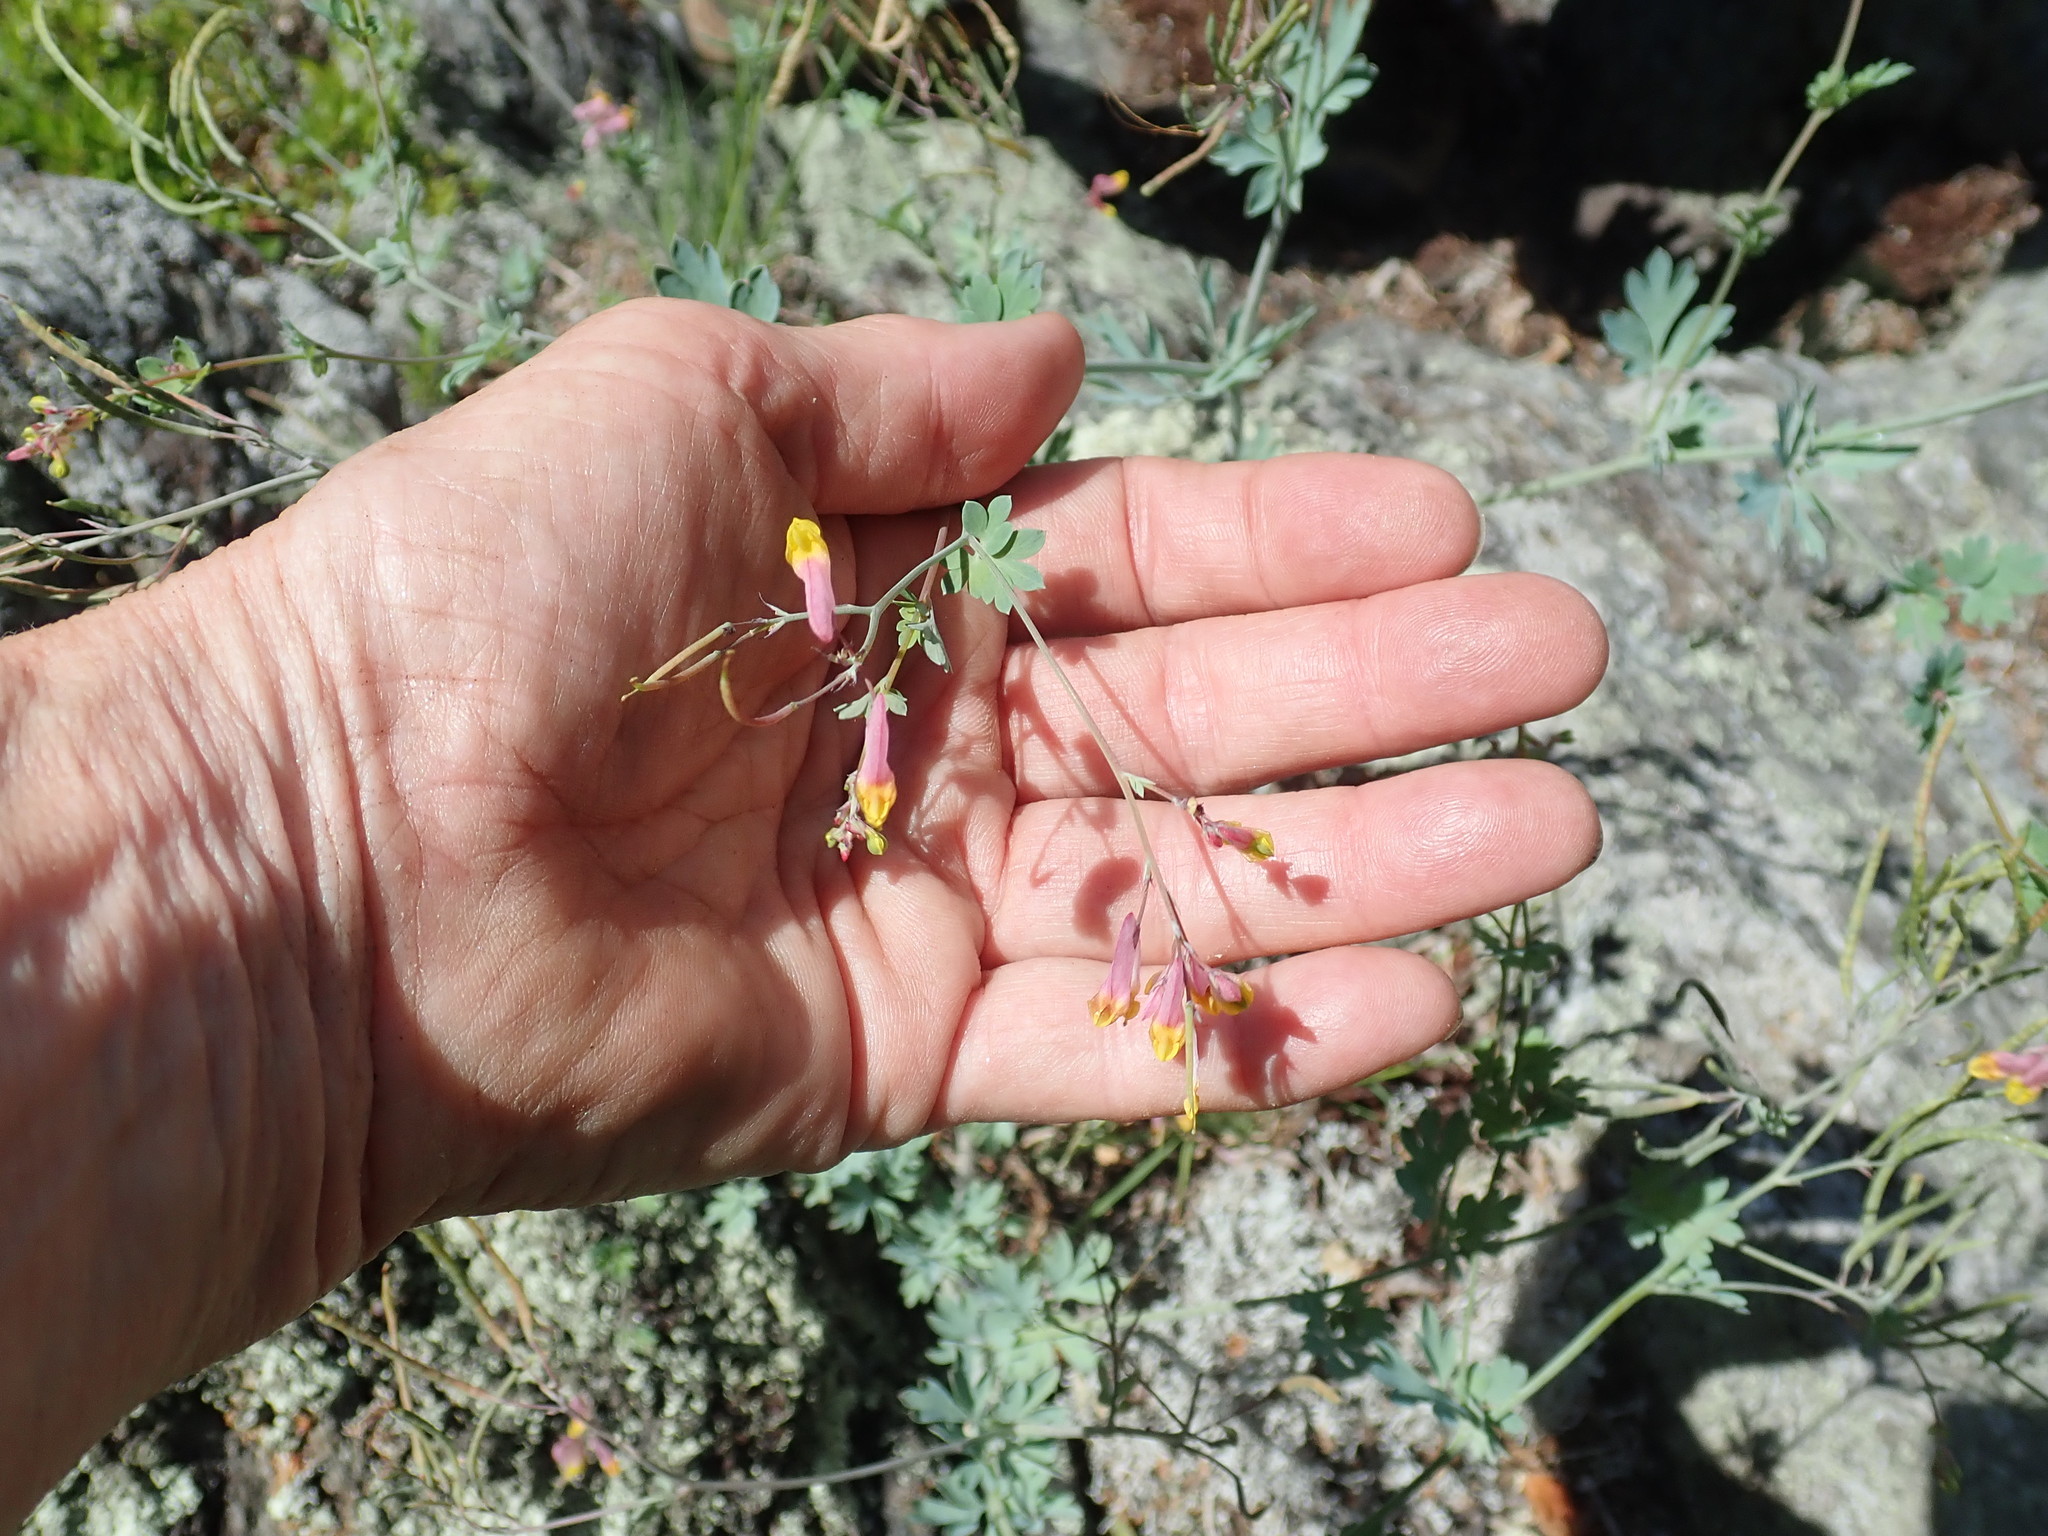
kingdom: Plantae
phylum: Tracheophyta
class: Magnoliopsida
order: Ranunculales
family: Papaveraceae
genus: Capnoides
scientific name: Capnoides sempervirens
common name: Rock harlequin
